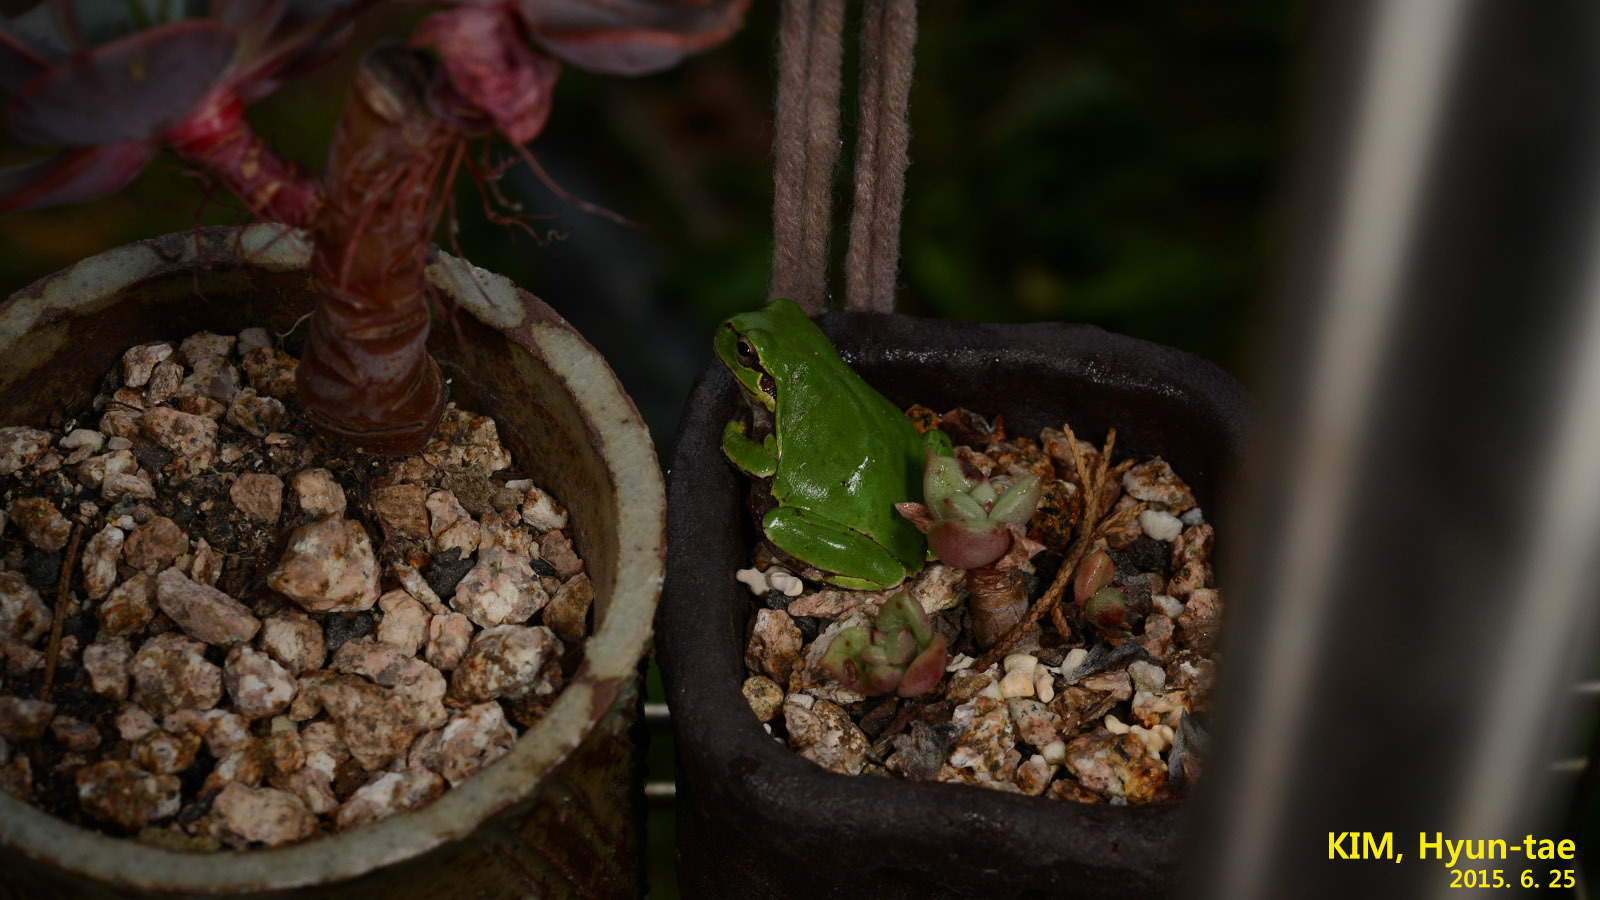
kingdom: Animalia
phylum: Chordata
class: Amphibia
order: Anura
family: Hylidae
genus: Dryophytes
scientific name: Dryophytes japonicus
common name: Japanese treefrog
